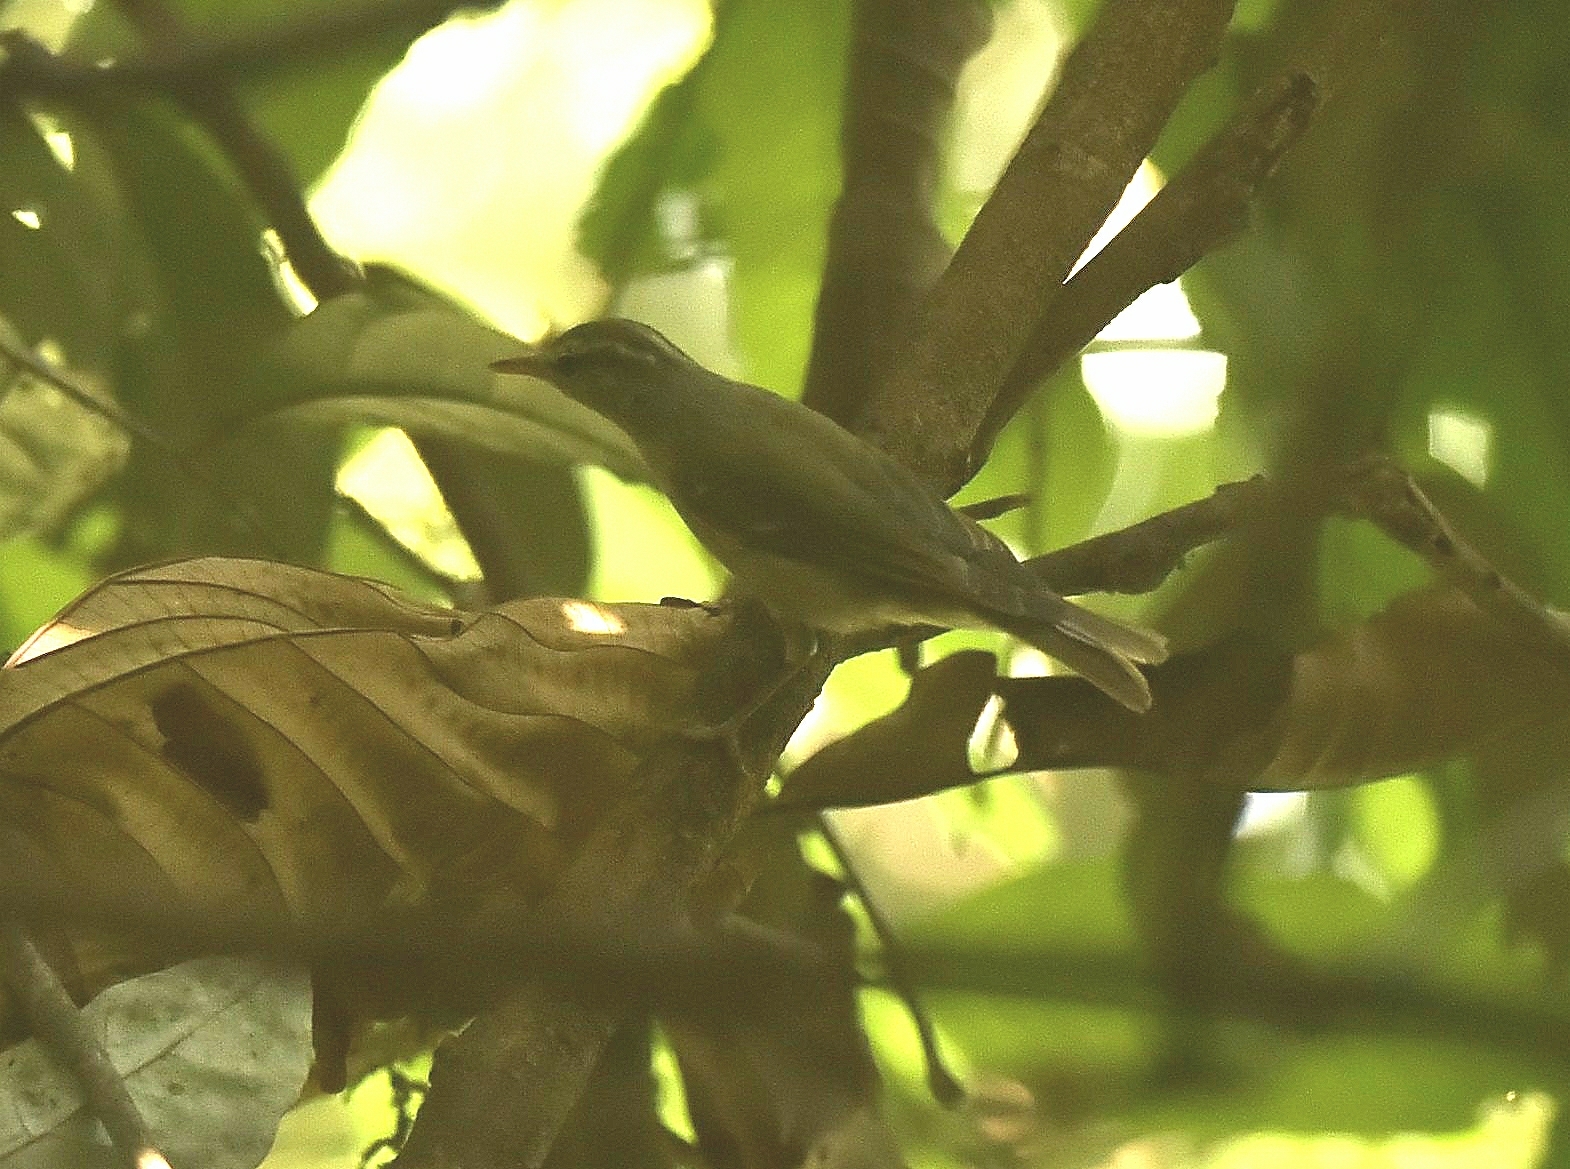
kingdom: Animalia
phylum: Chordata
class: Aves
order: Passeriformes
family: Phylloscopidae
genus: Phylloscopus
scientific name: Phylloscopus occipitalis
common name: Western crowned warbler
